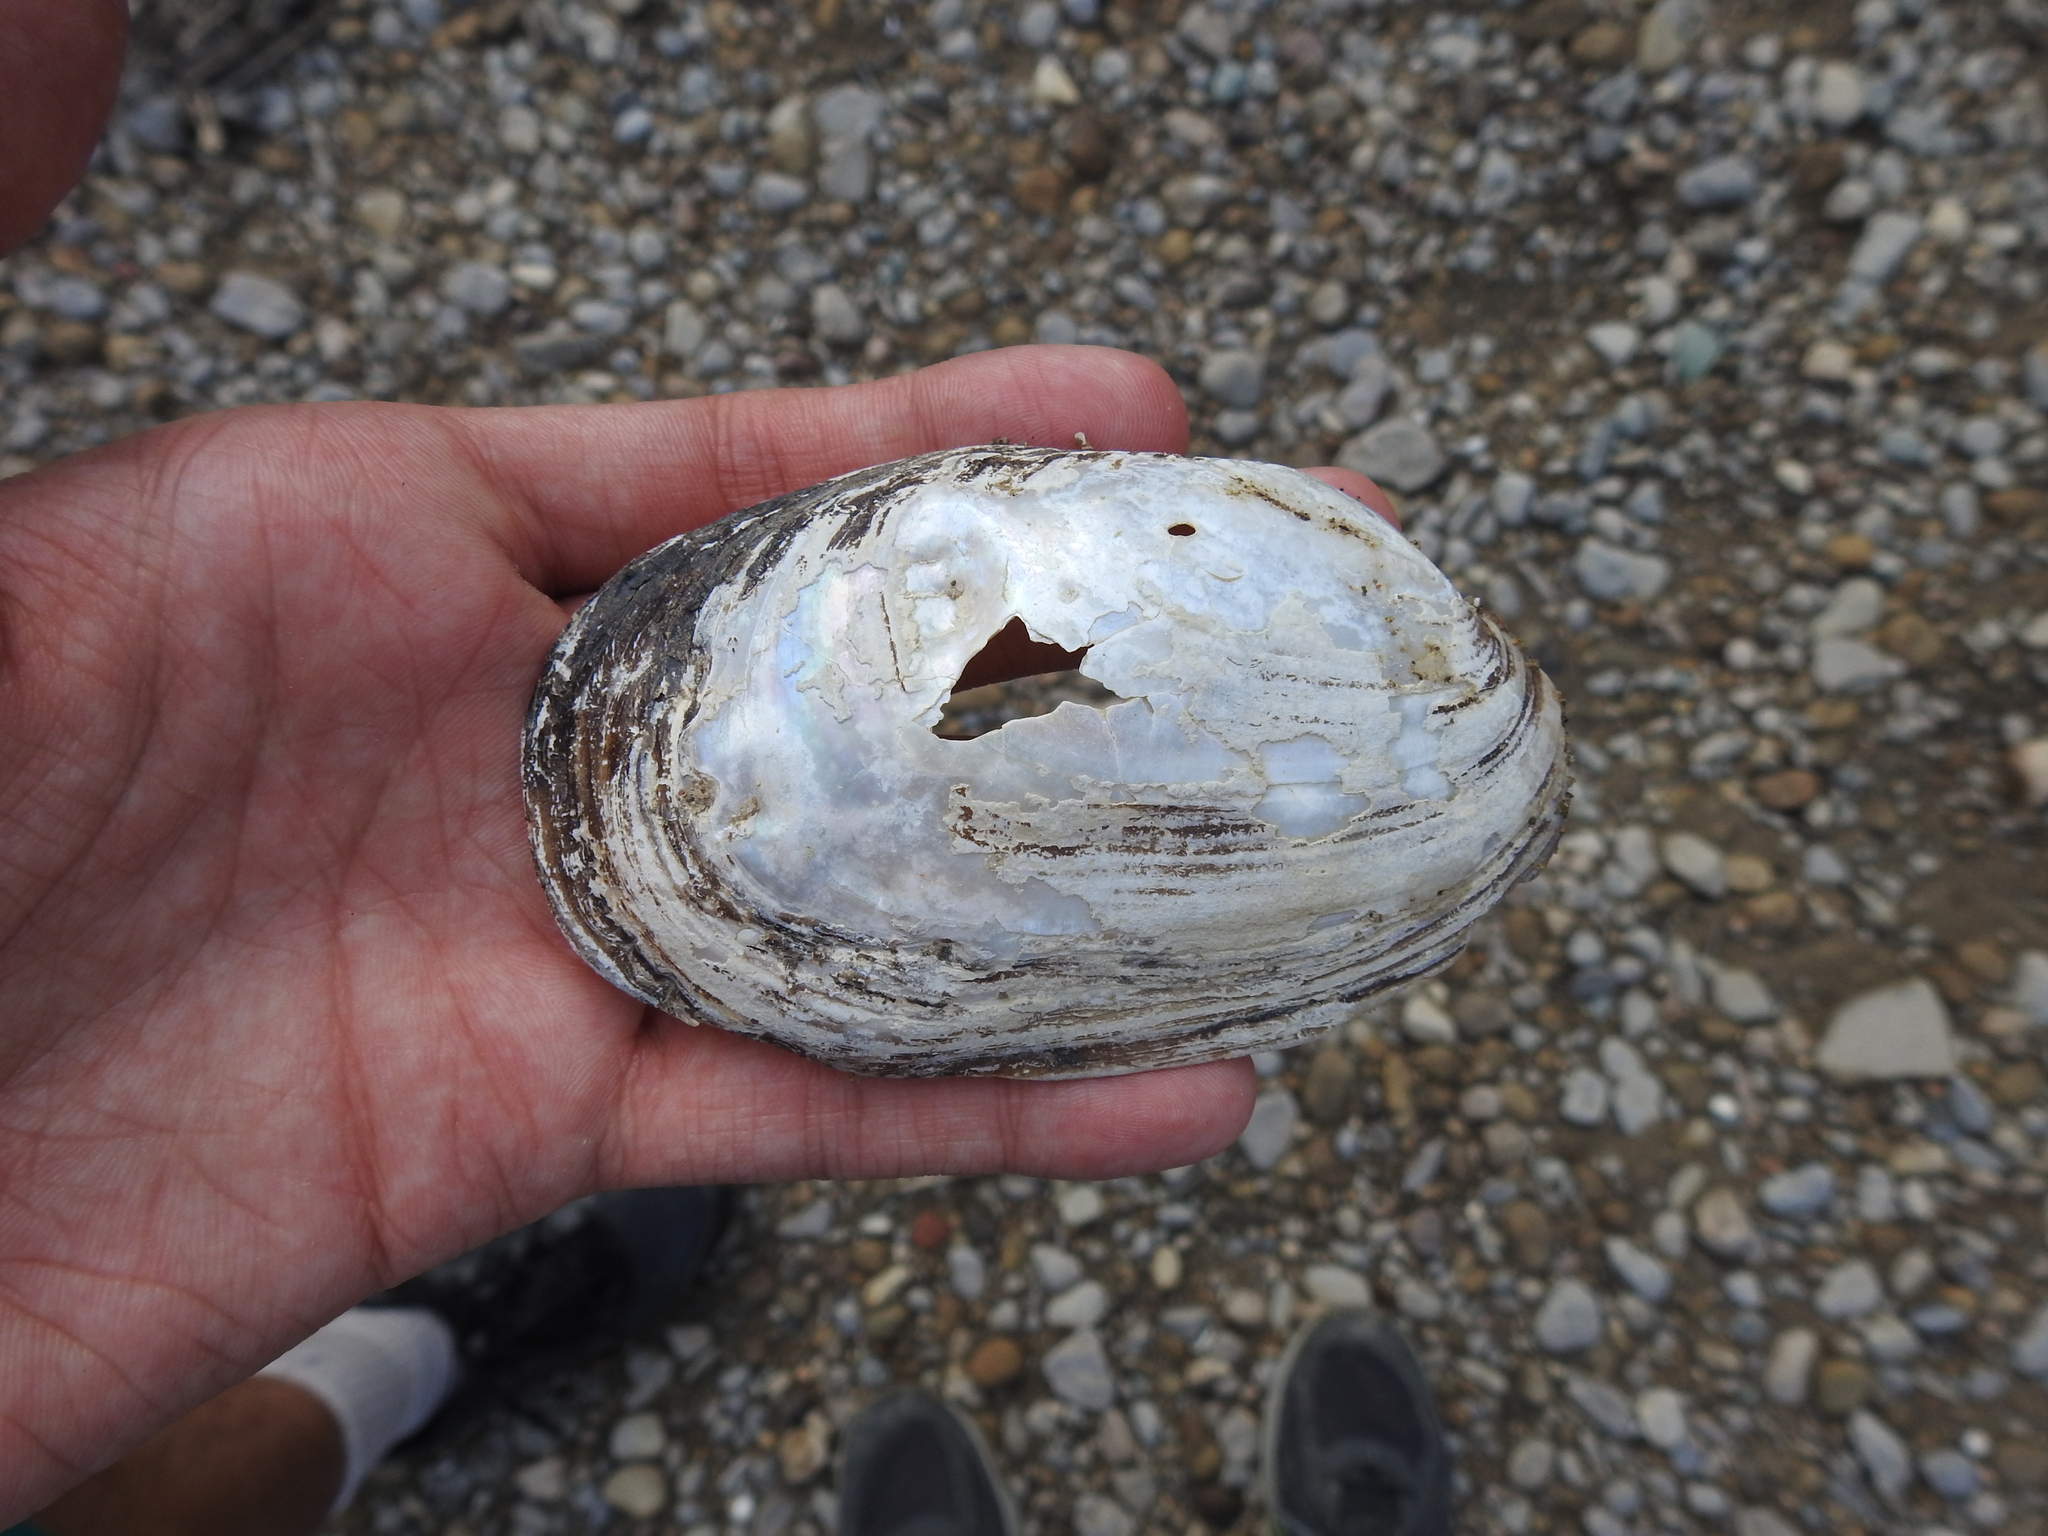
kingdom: Animalia
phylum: Mollusca
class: Bivalvia
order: Unionida
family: Unionidae
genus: Potamilus
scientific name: Potamilus fragilis
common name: Fragile papershell
